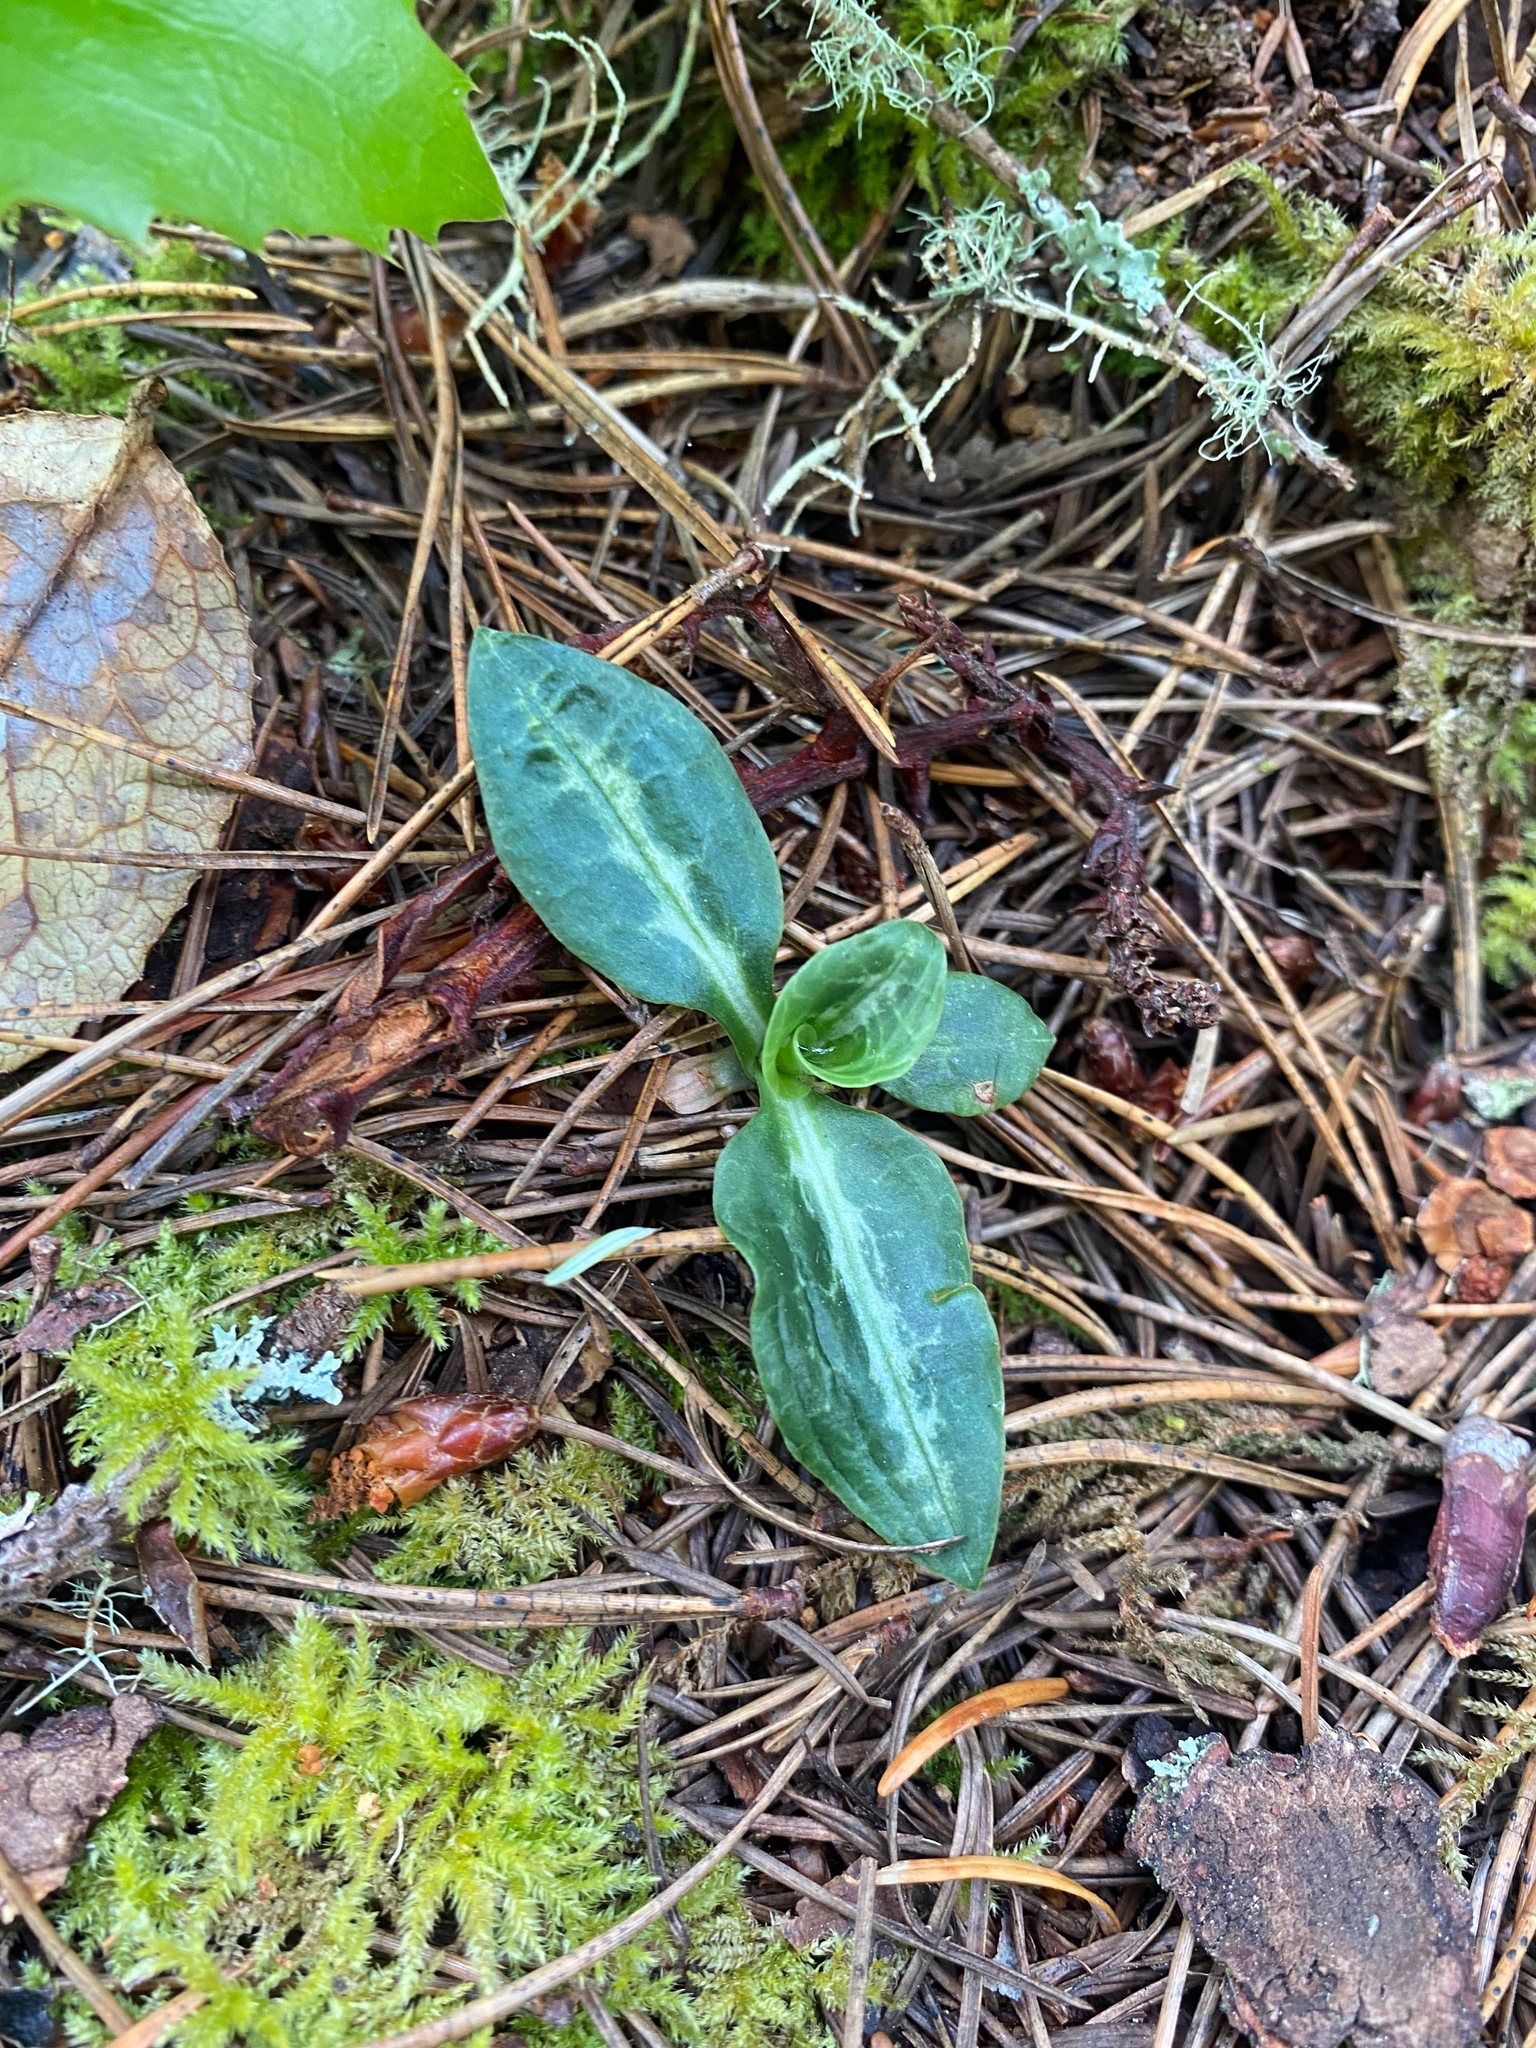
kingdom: Plantae
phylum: Tracheophyta
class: Liliopsida
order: Asparagales
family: Orchidaceae
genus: Goodyera
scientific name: Goodyera oblongifolia
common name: Giant rattlesnake-plantain
